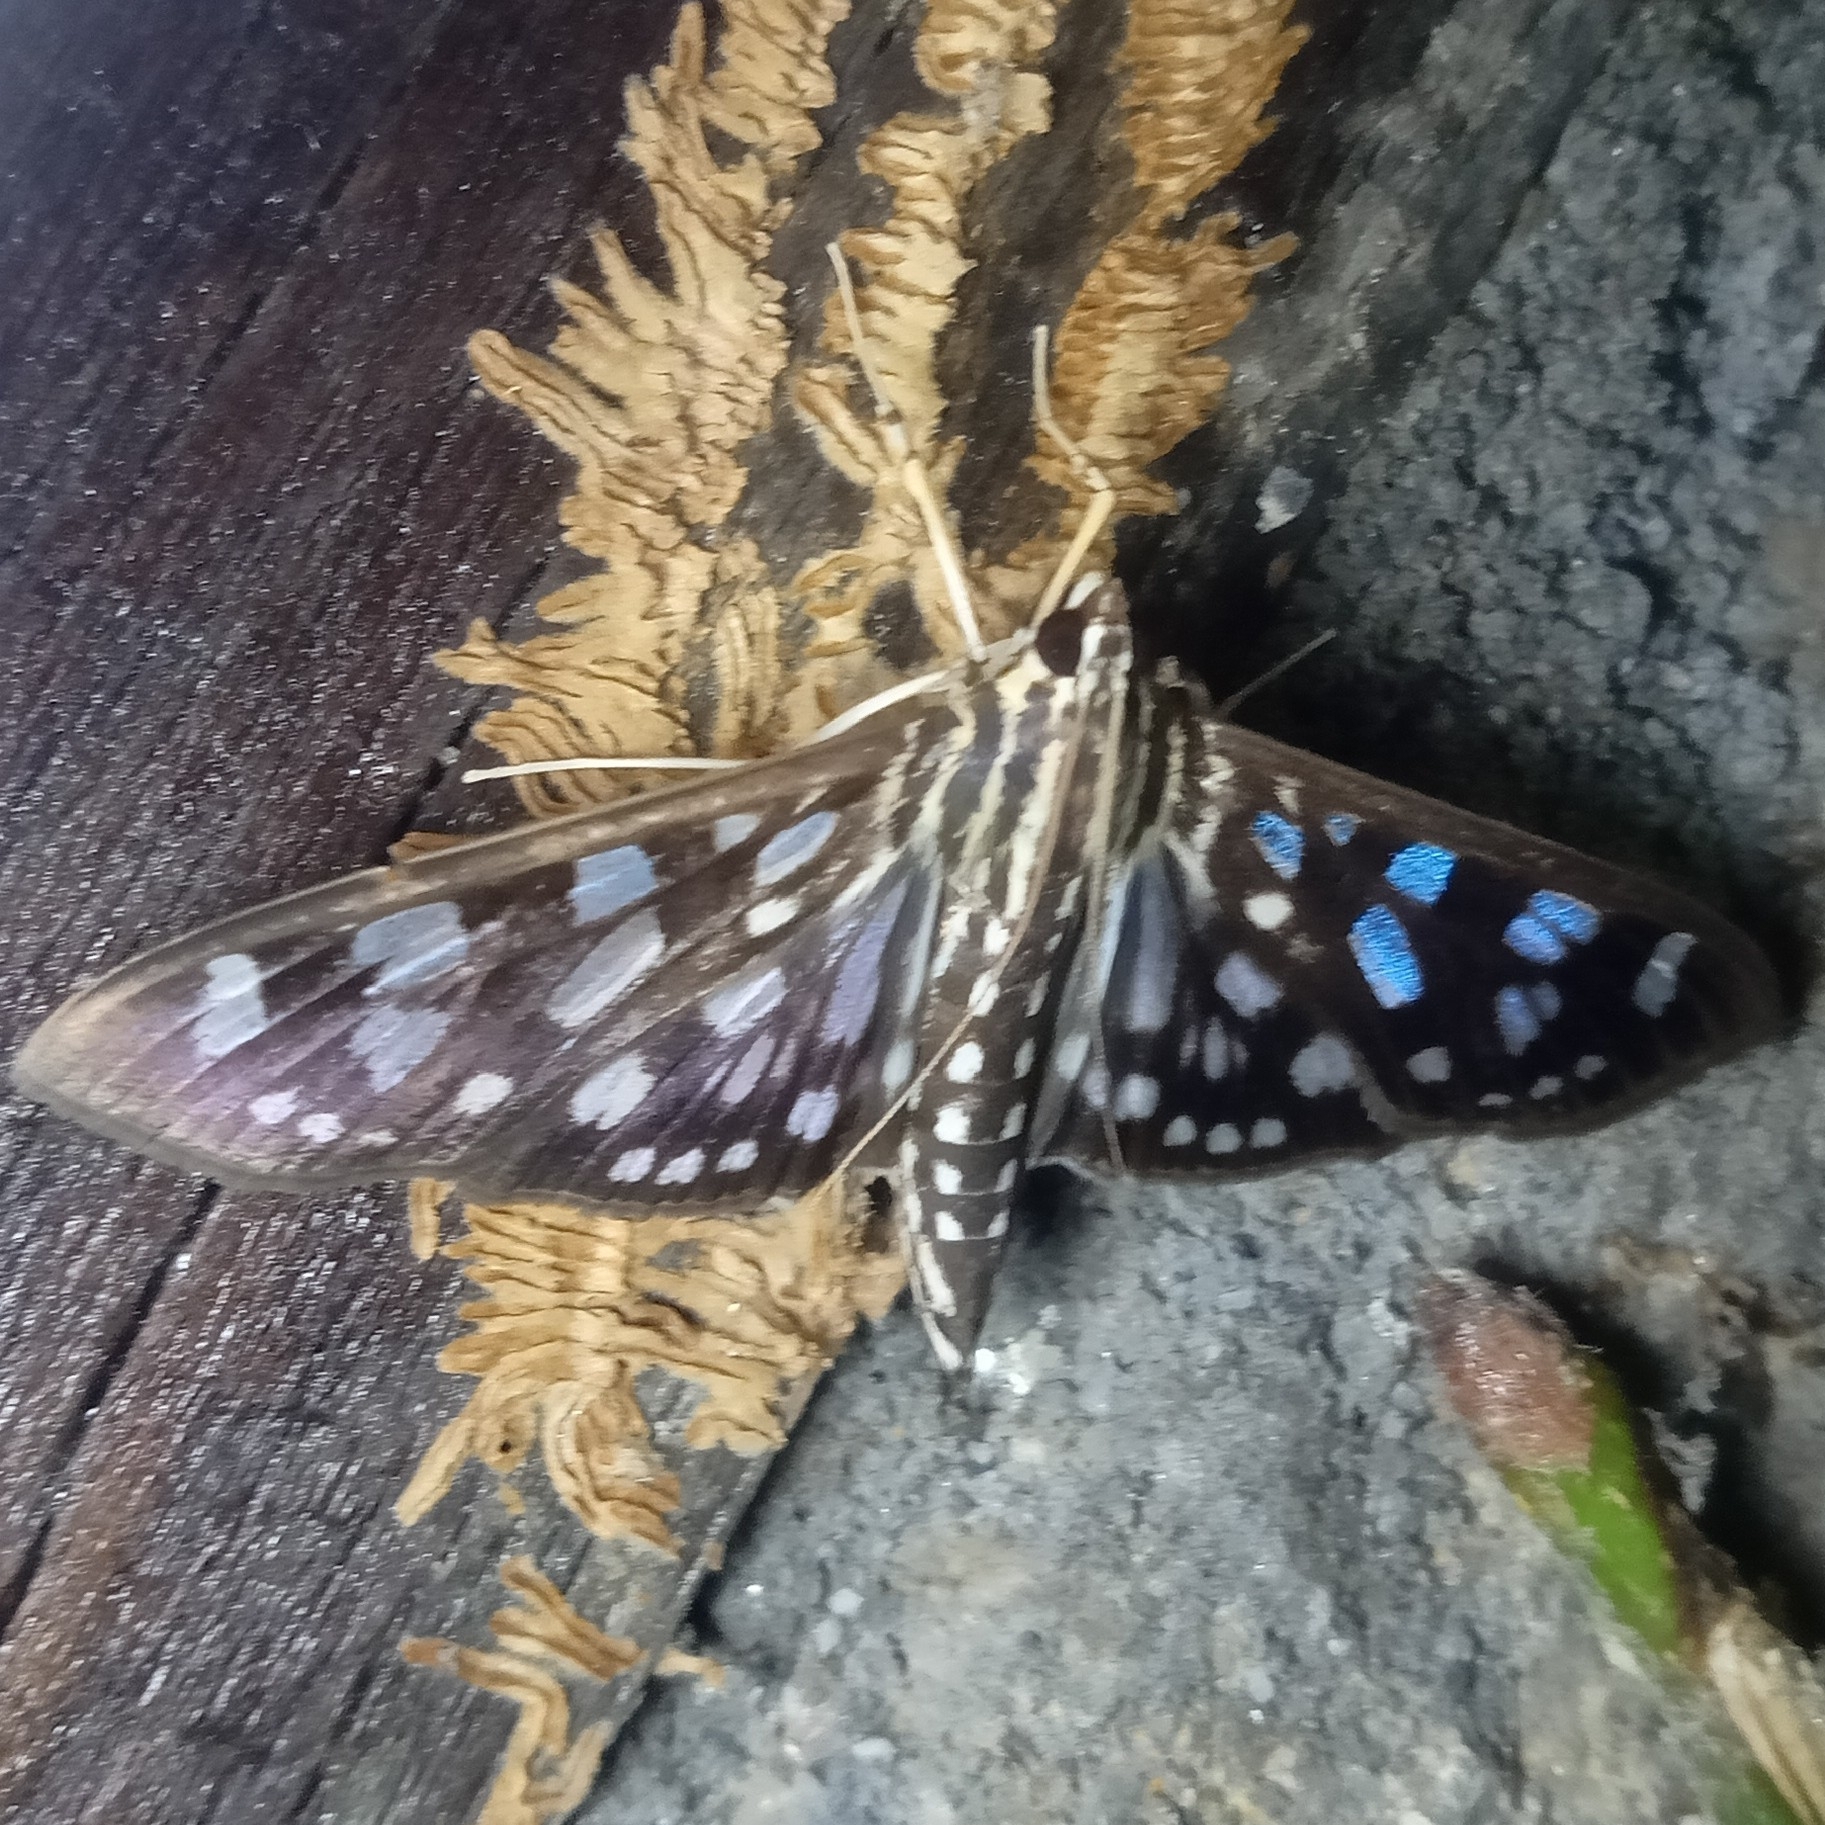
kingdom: Animalia
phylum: Arthropoda
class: Insecta
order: Lepidoptera
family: Crambidae
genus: Pygospila
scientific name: Pygospila tyres
